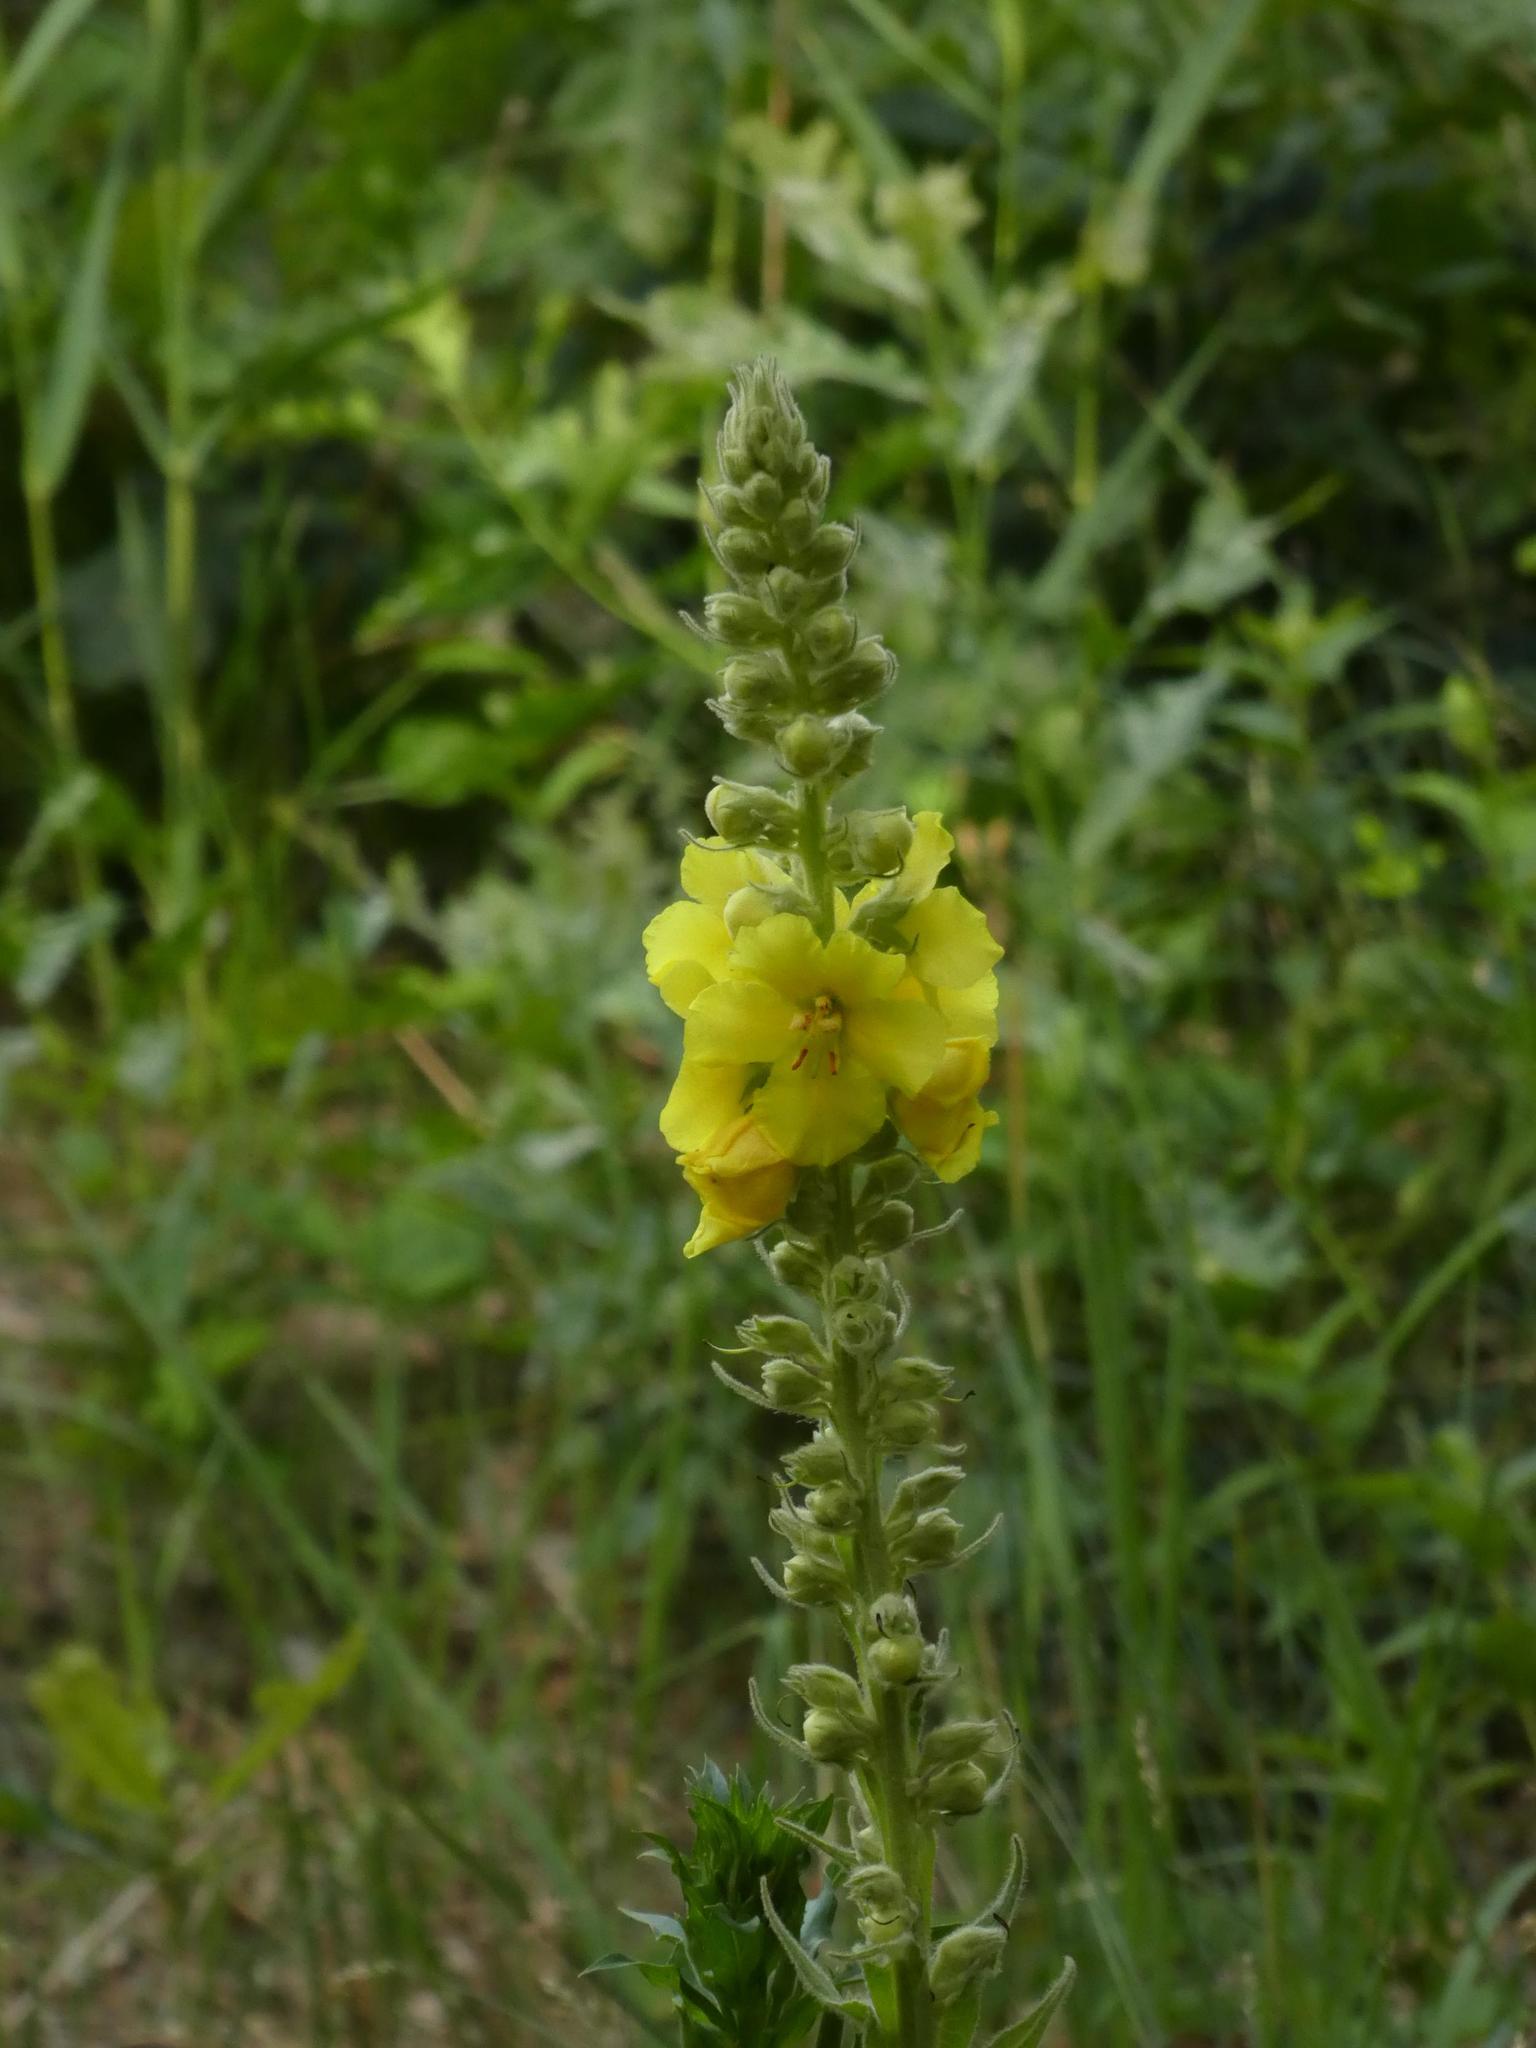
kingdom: Plantae
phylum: Tracheophyta
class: Magnoliopsida
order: Lamiales
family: Scrophulariaceae
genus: Verbascum
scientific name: Verbascum phlomoides
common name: Orange mullein
